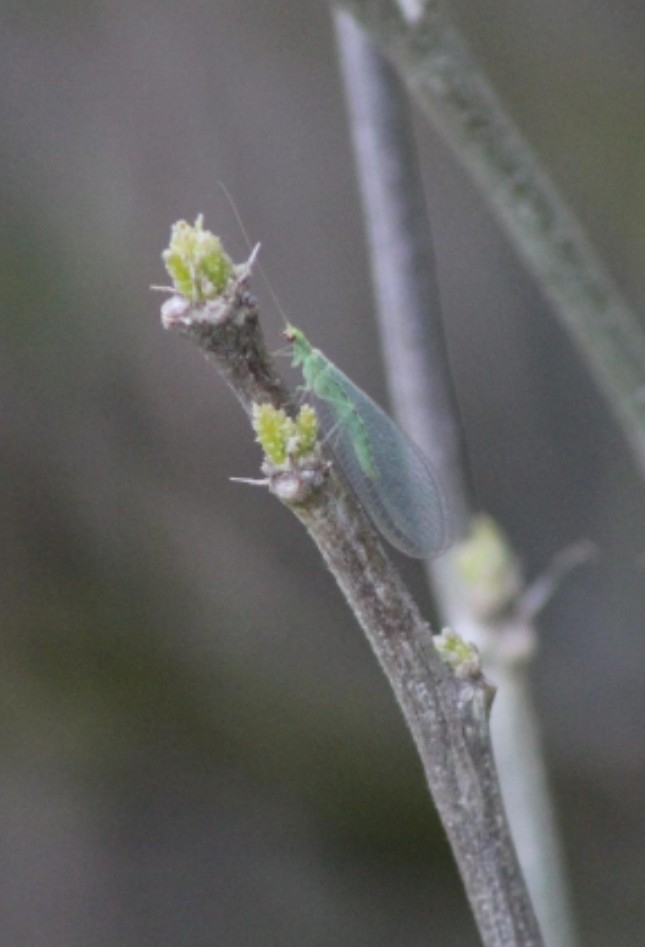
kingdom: Animalia
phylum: Arthropoda
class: Insecta
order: Neuroptera
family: Chrysopidae
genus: Chrysoperla
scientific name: Chrysoperla
